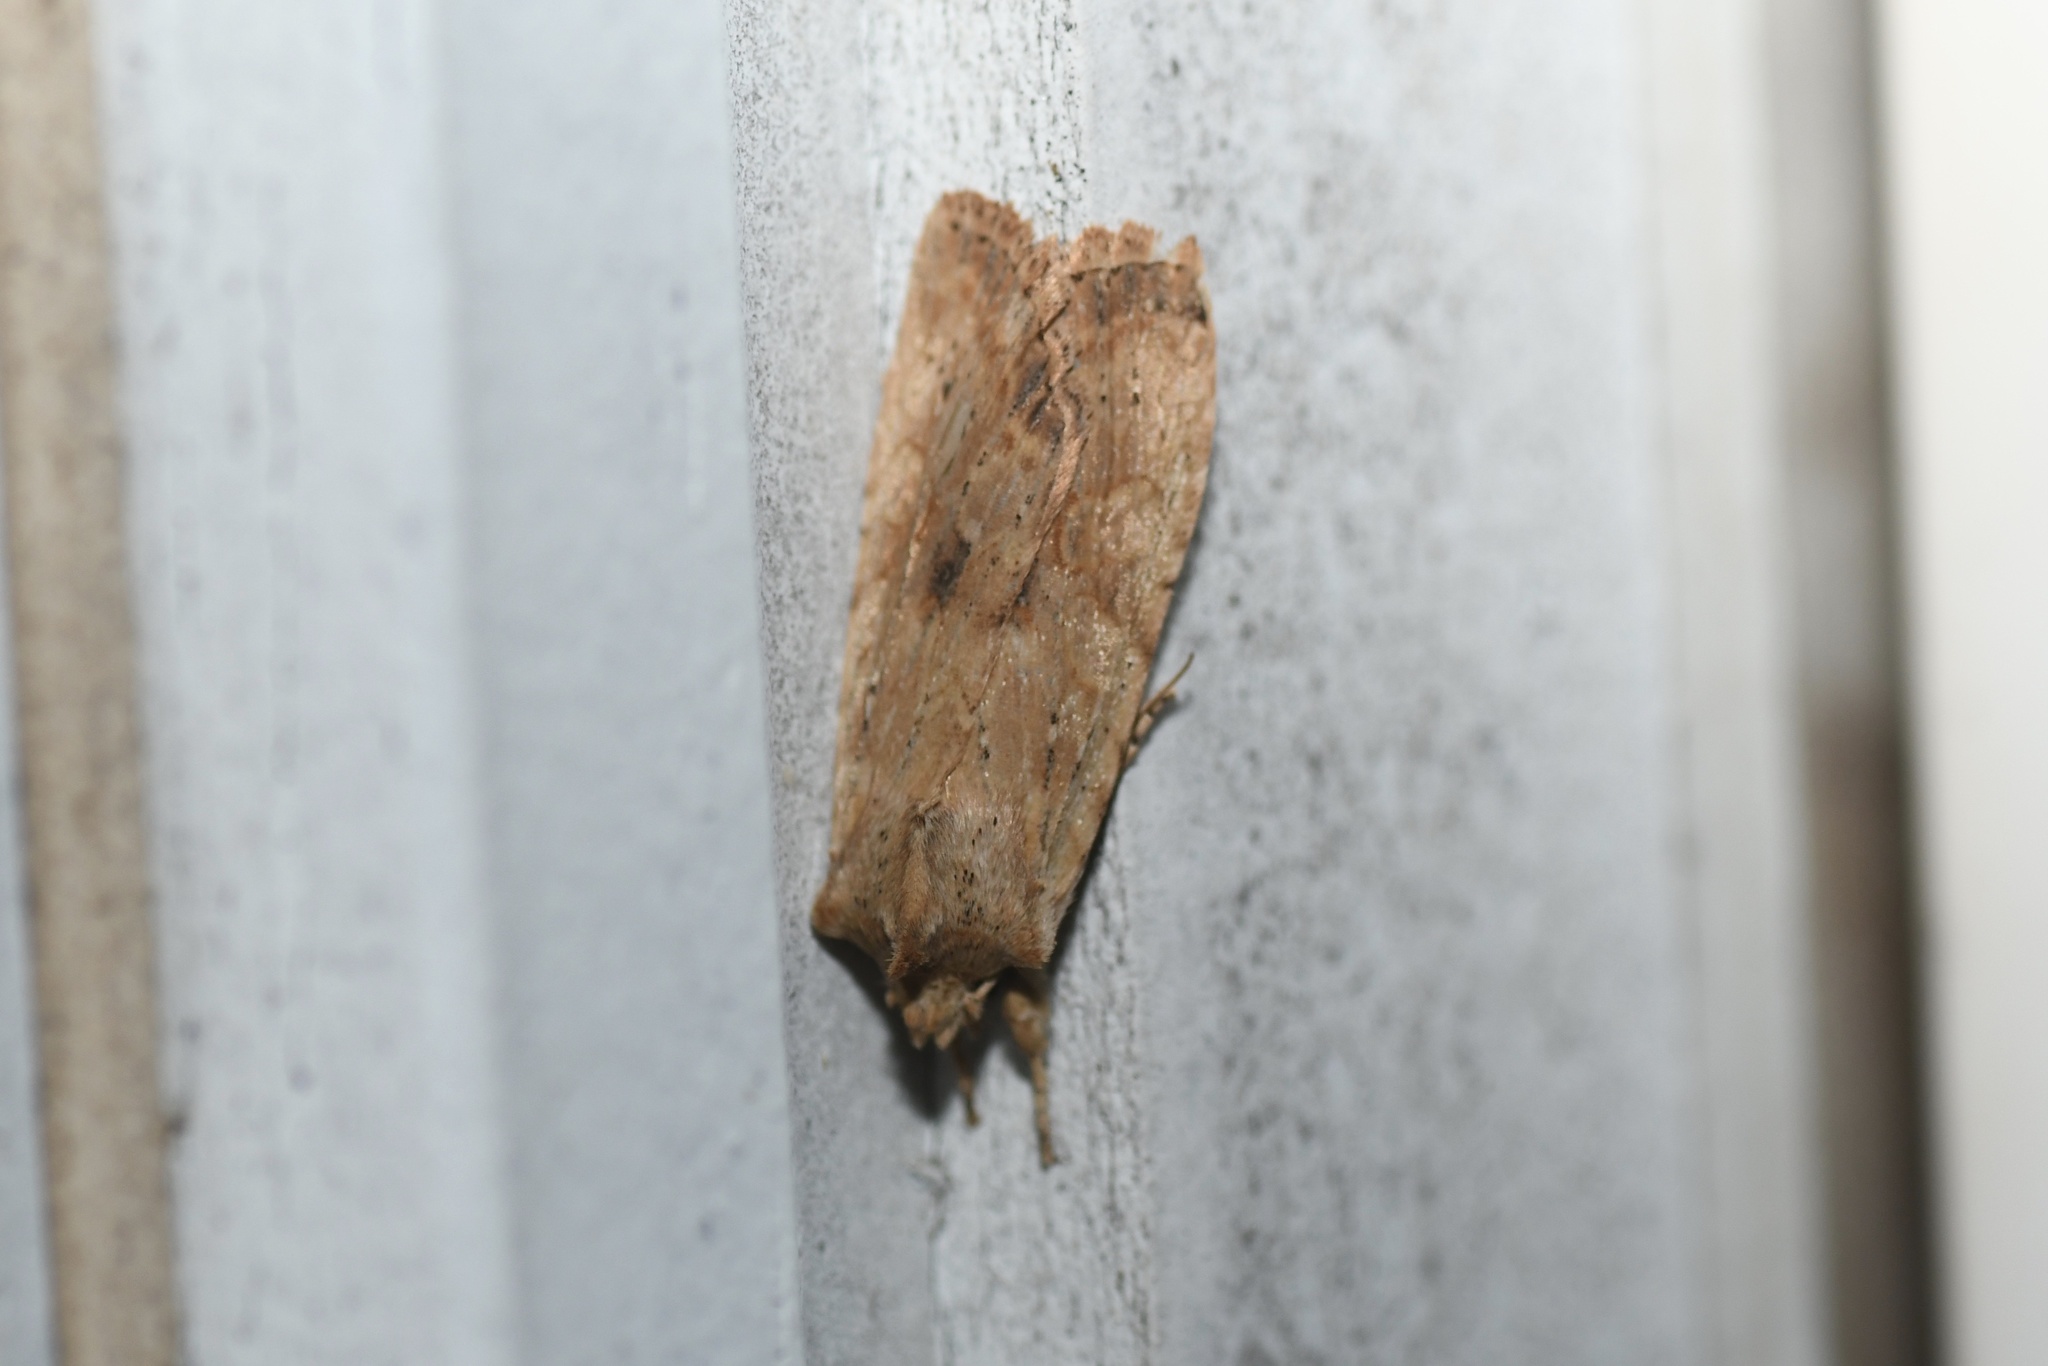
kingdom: Animalia
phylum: Arthropoda
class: Insecta
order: Lepidoptera
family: Noctuidae
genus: Lithophane
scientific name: Lithophane innominata
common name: Nameless pinion moth
